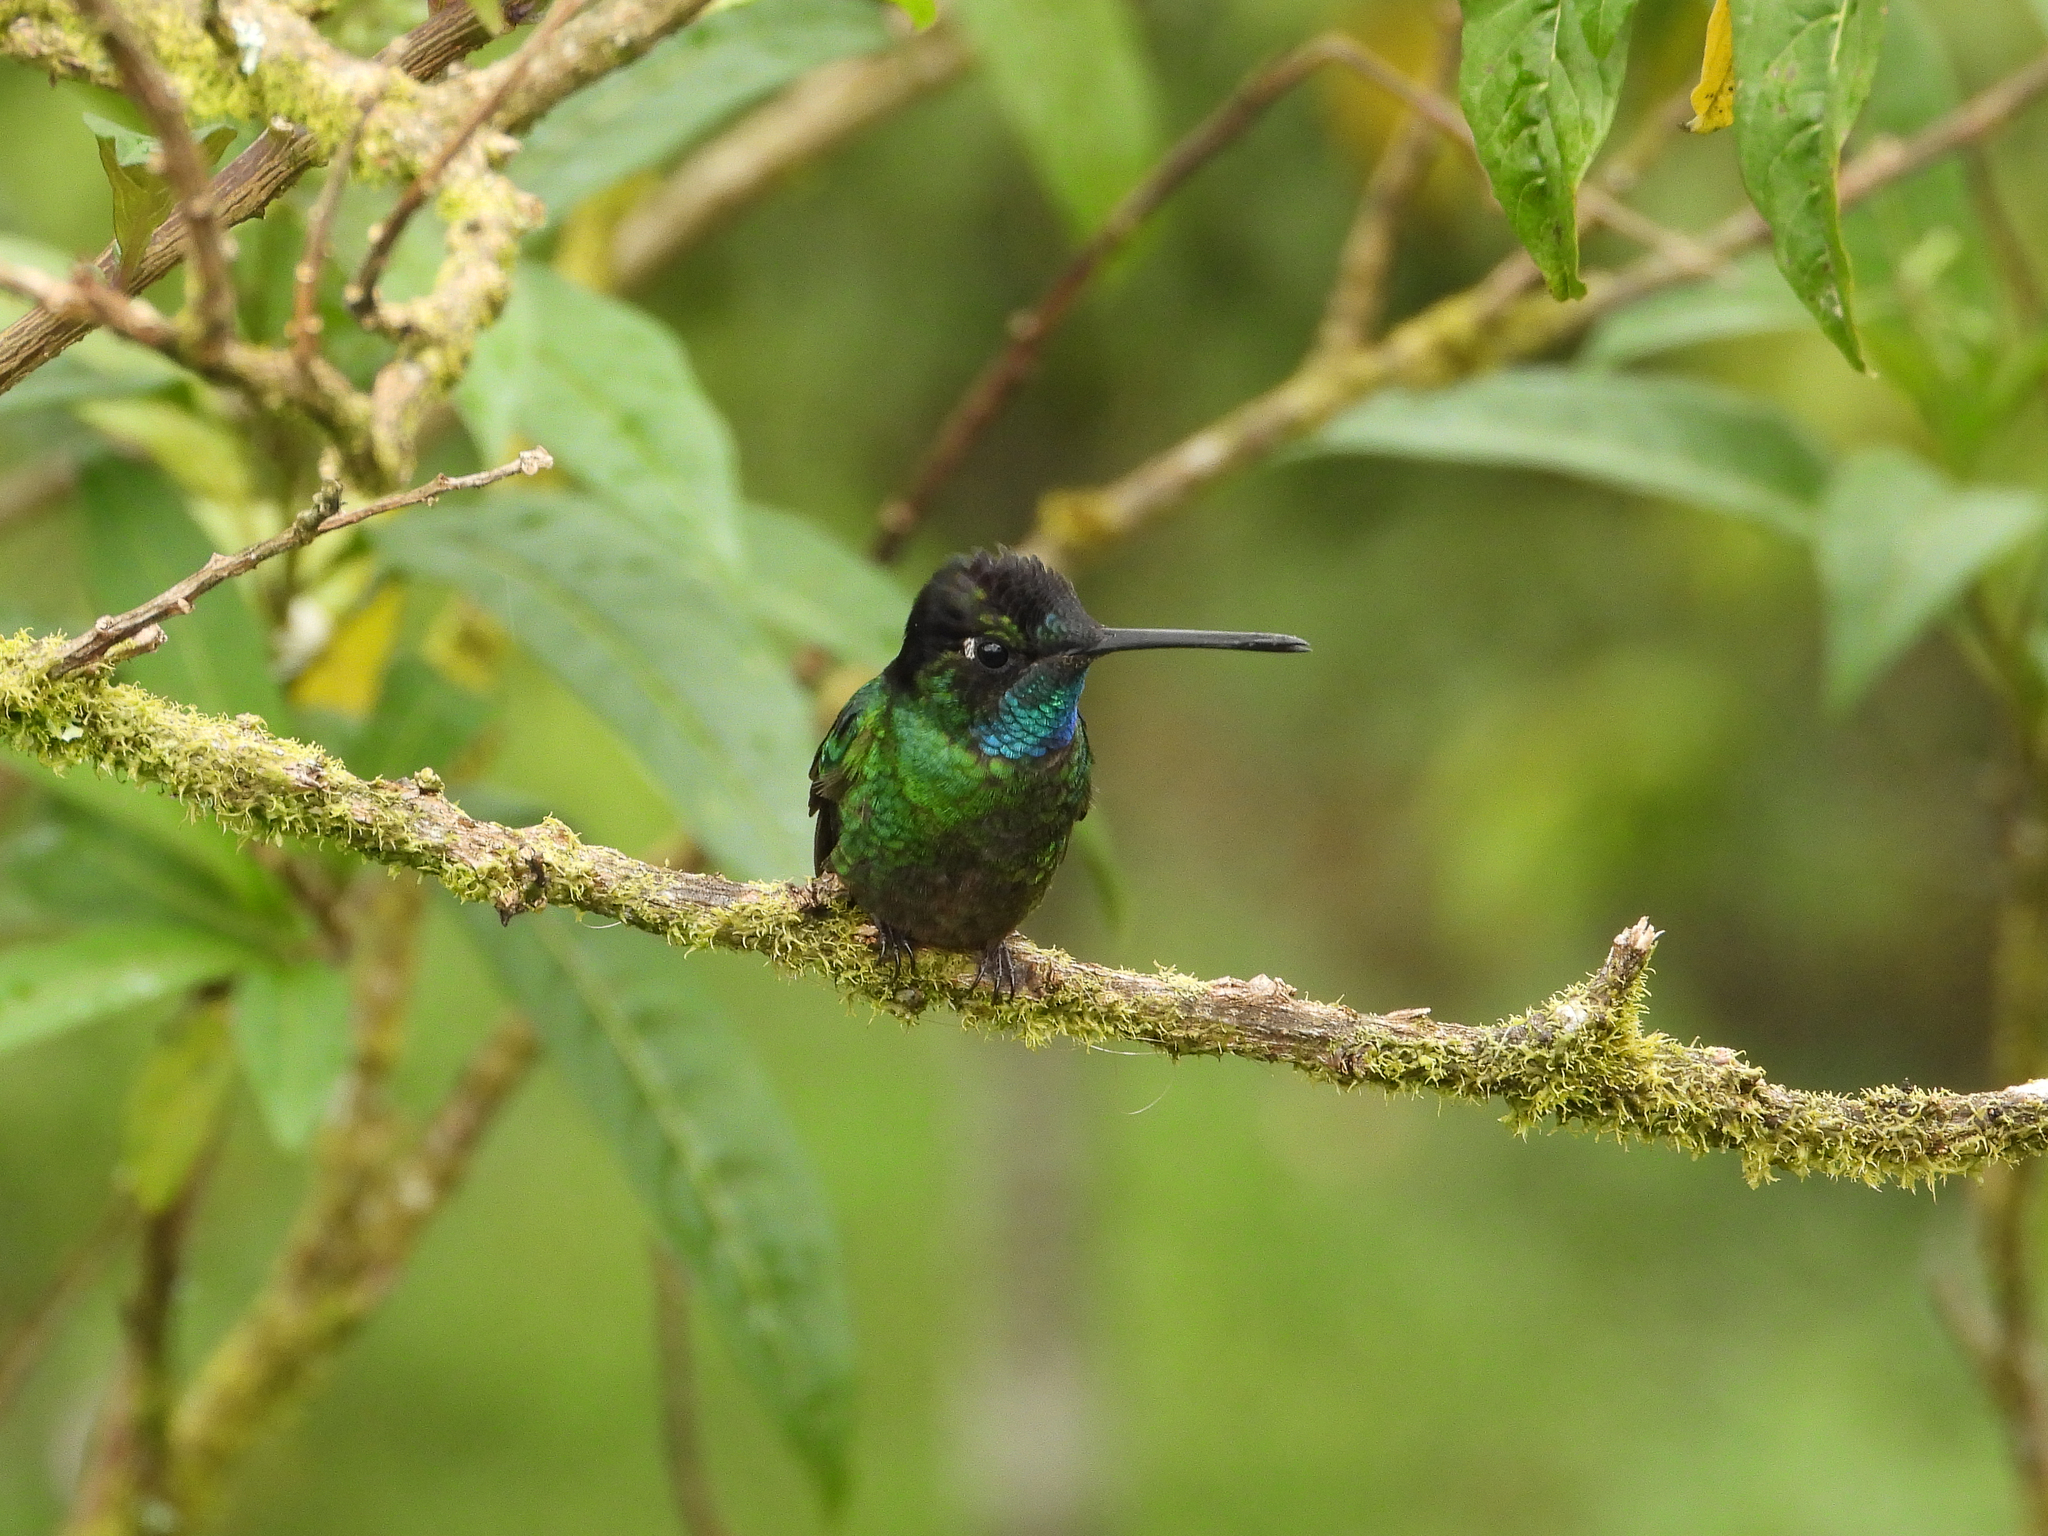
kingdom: Animalia
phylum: Chordata
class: Aves
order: Apodiformes
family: Trochilidae
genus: Eugenes
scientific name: Eugenes spectabilis
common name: Talamanca hummingbird
